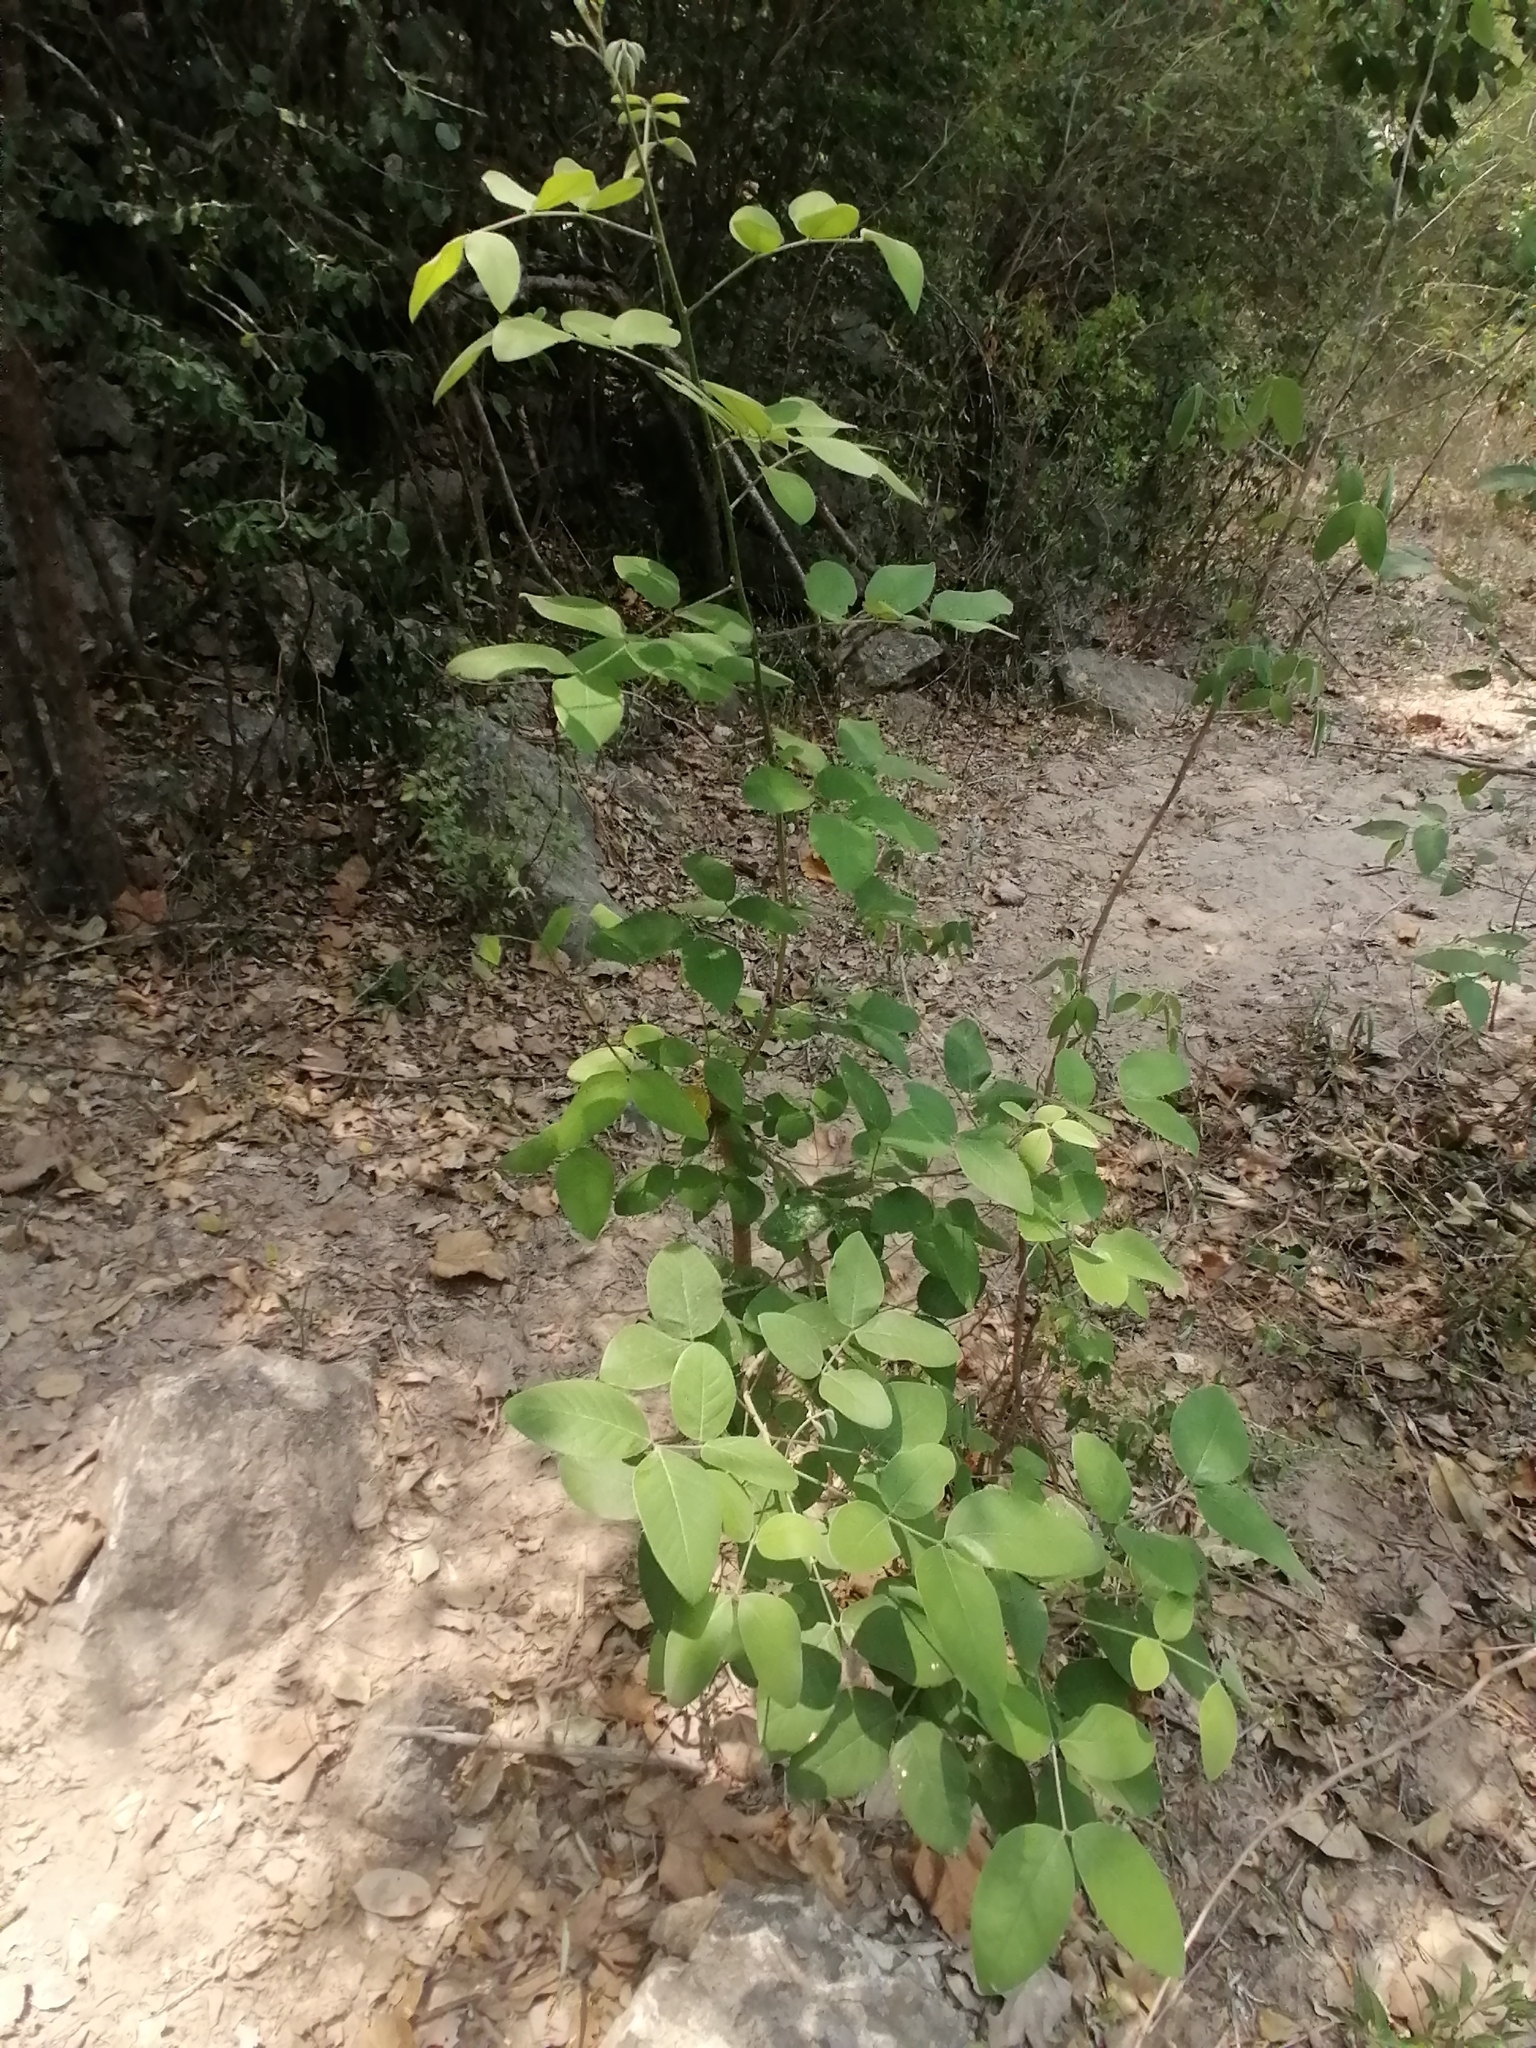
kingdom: Plantae
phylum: Tracheophyta
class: Magnoliopsida
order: Fabales
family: Fabaceae
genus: Senna
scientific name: Senna atomaria
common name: Flor de san jose
